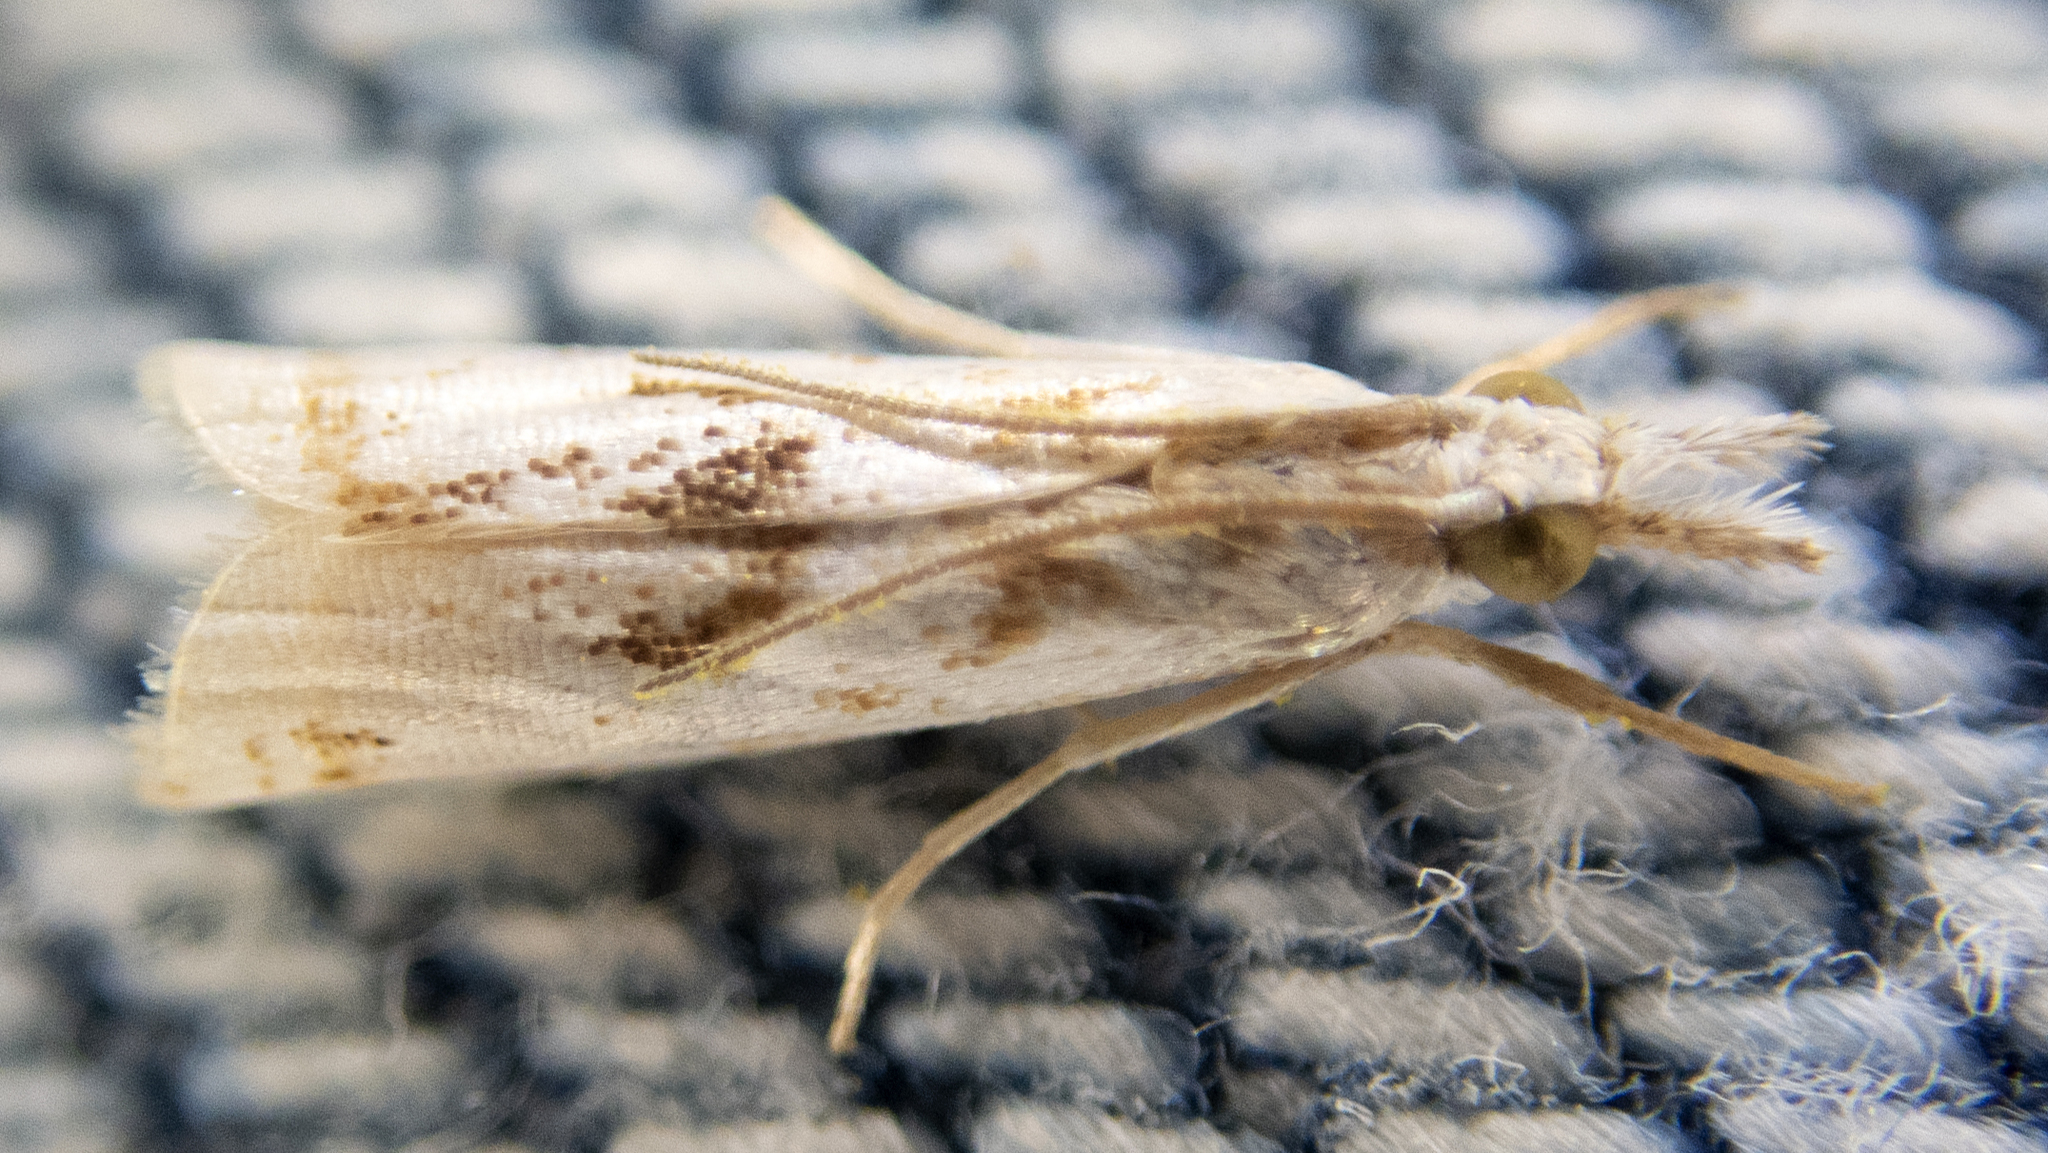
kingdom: Animalia
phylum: Arthropoda
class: Insecta
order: Lepidoptera
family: Crambidae
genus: Microcrambus
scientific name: Microcrambus elegans
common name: Elegant grass-veneer
